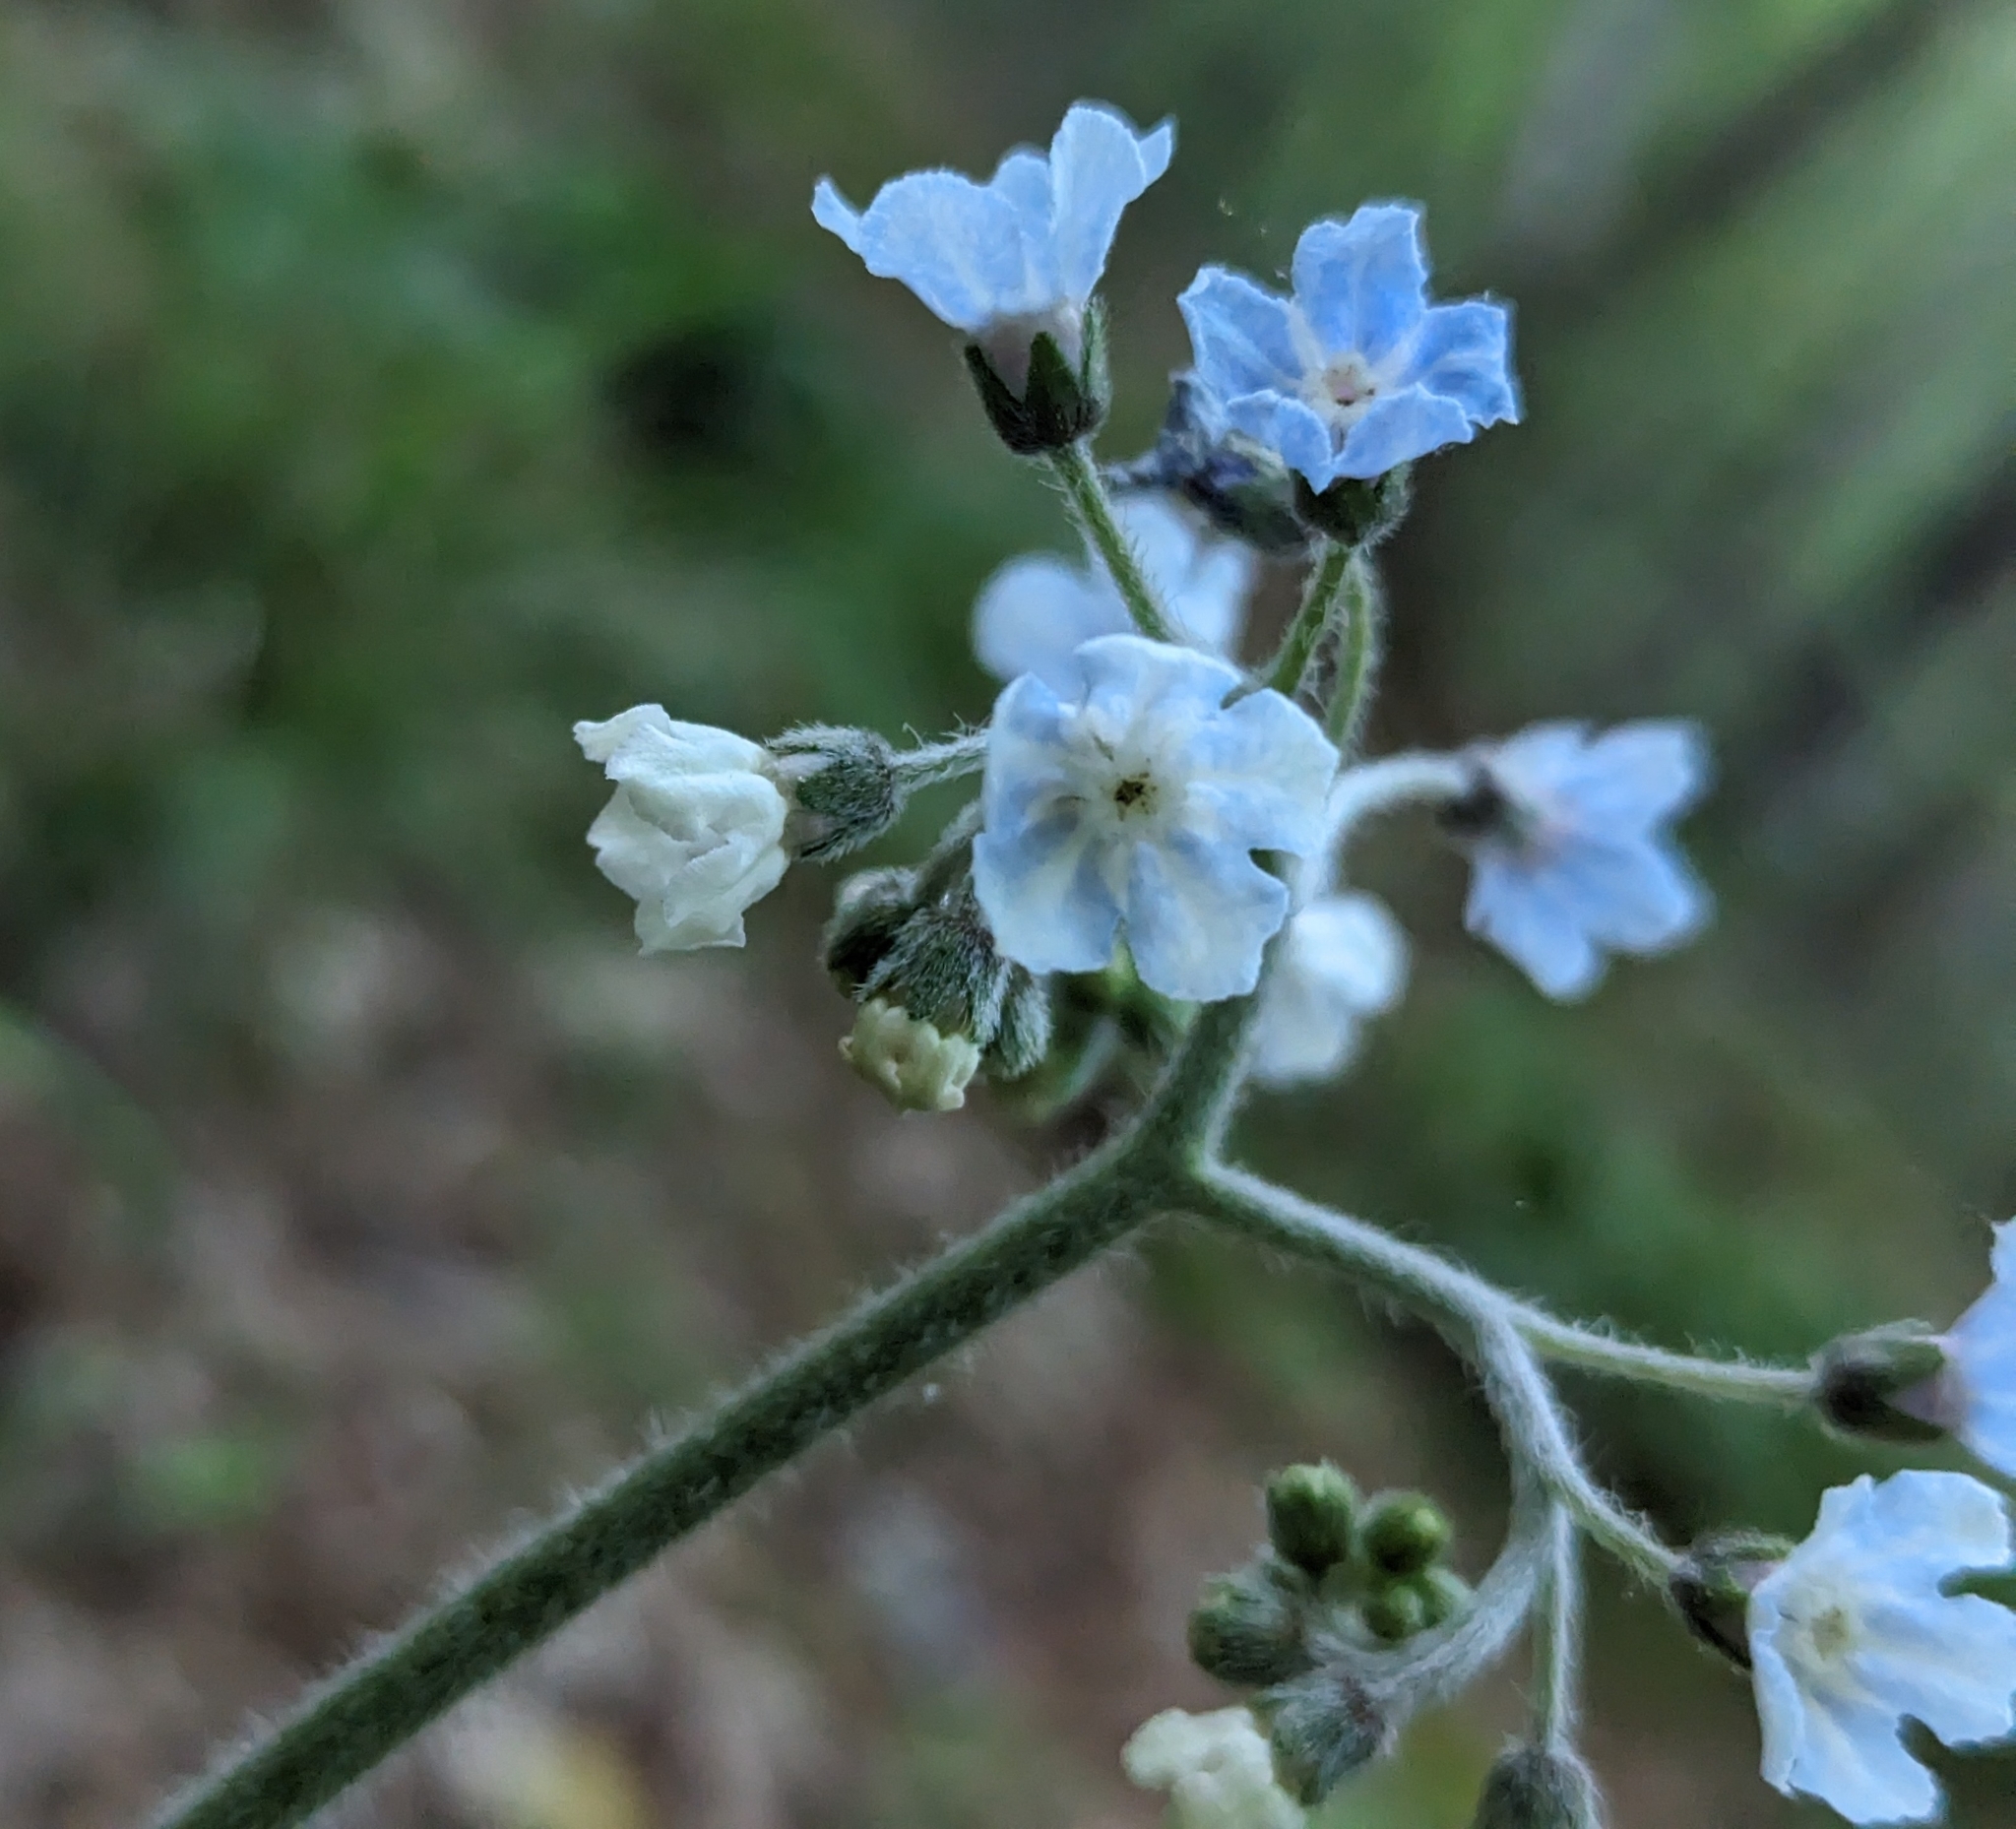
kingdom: Plantae
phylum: Tracheophyta
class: Magnoliopsida
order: Boraginales
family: Boraginaceae
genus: Andersonglossum
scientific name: Andersonglossum virginianum
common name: Wild comfrey
